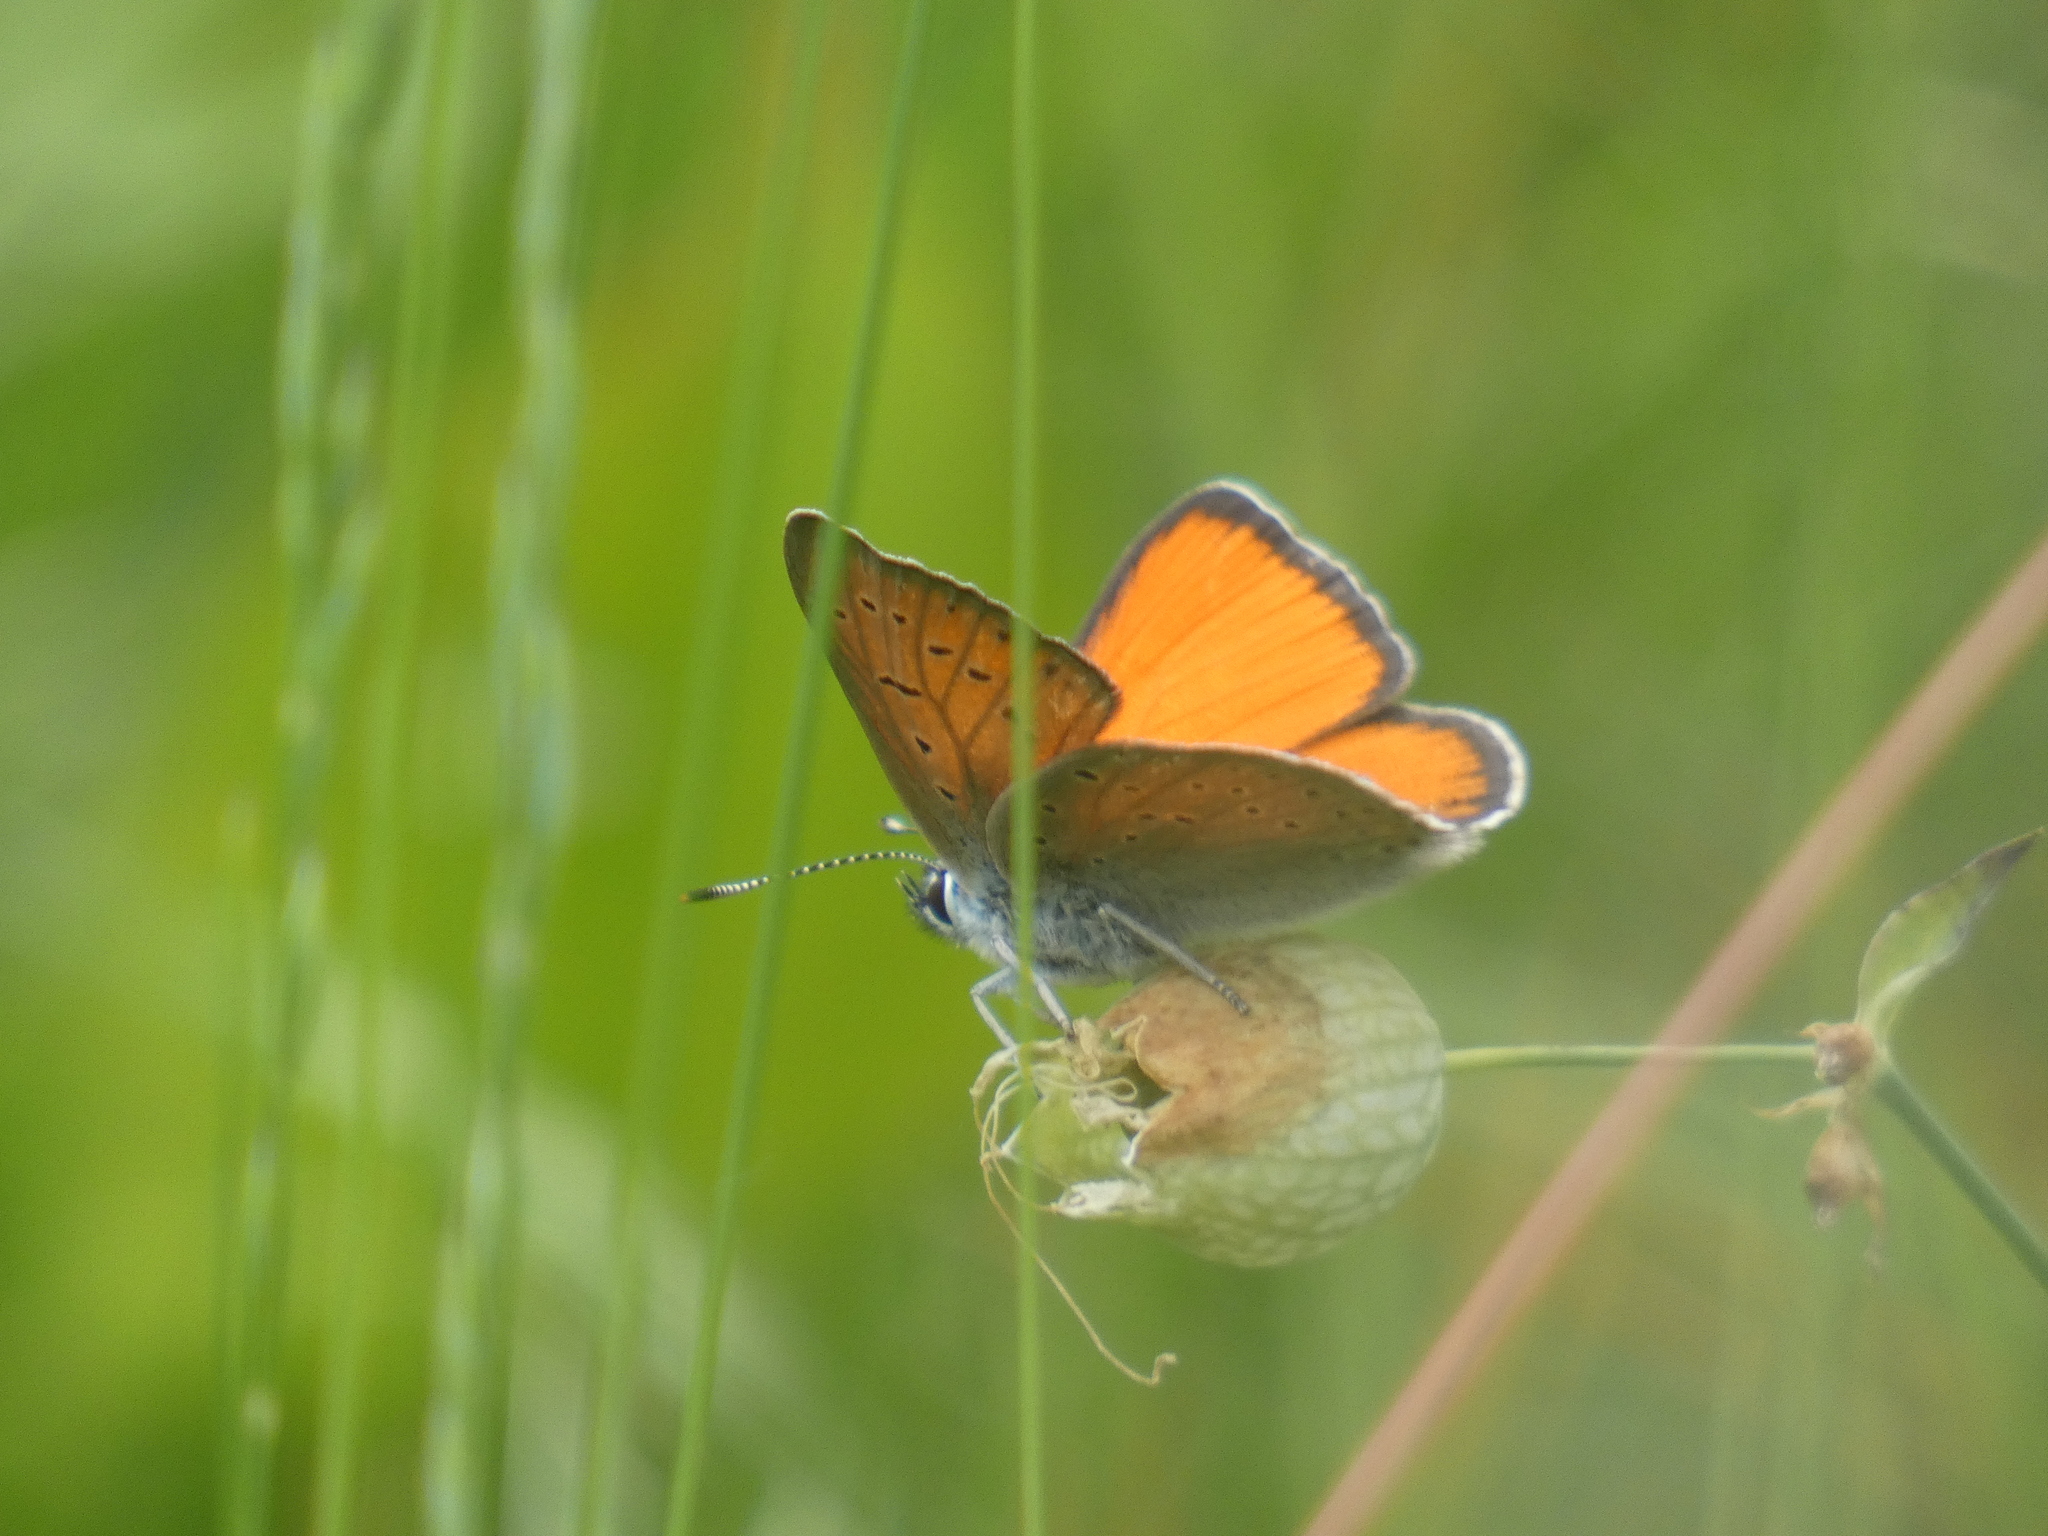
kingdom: Animalia
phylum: Arthropoda
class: Insecta
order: Lepidoptera
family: Lycaenidae
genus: Palaeochrysophanus
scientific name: Palaeochrysophanus hippothoe
